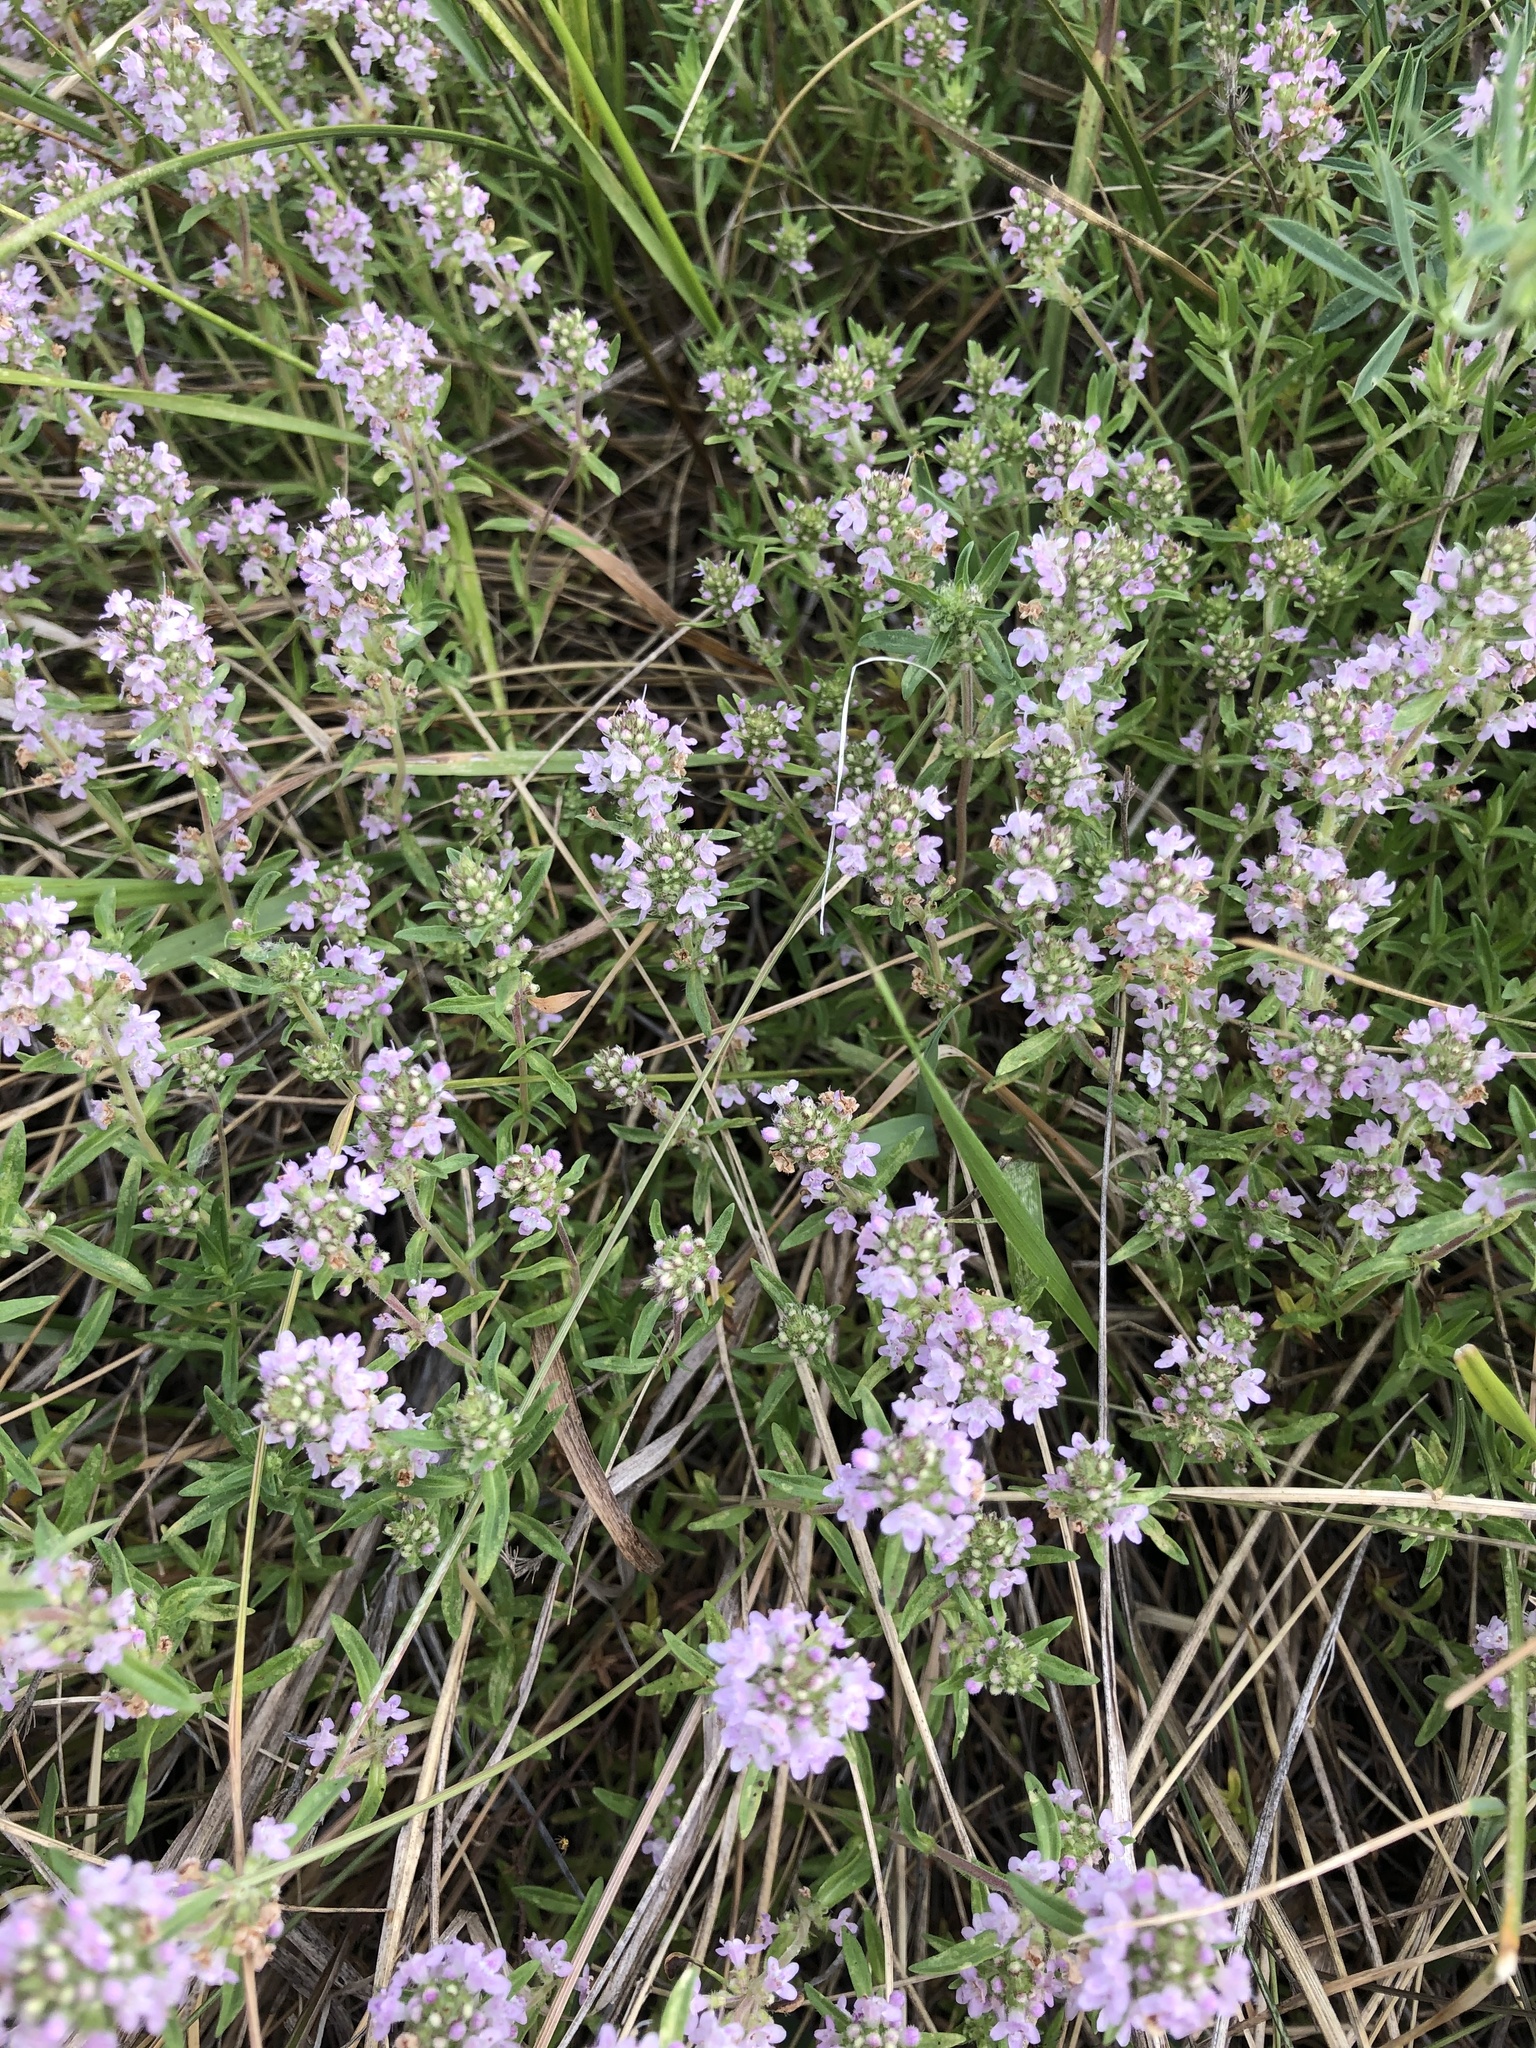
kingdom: Plantae
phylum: Tracheophyta
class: Magnoliopsida
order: Lamiales
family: Lamiaceae
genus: Thymus
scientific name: Thymus pannonicus
